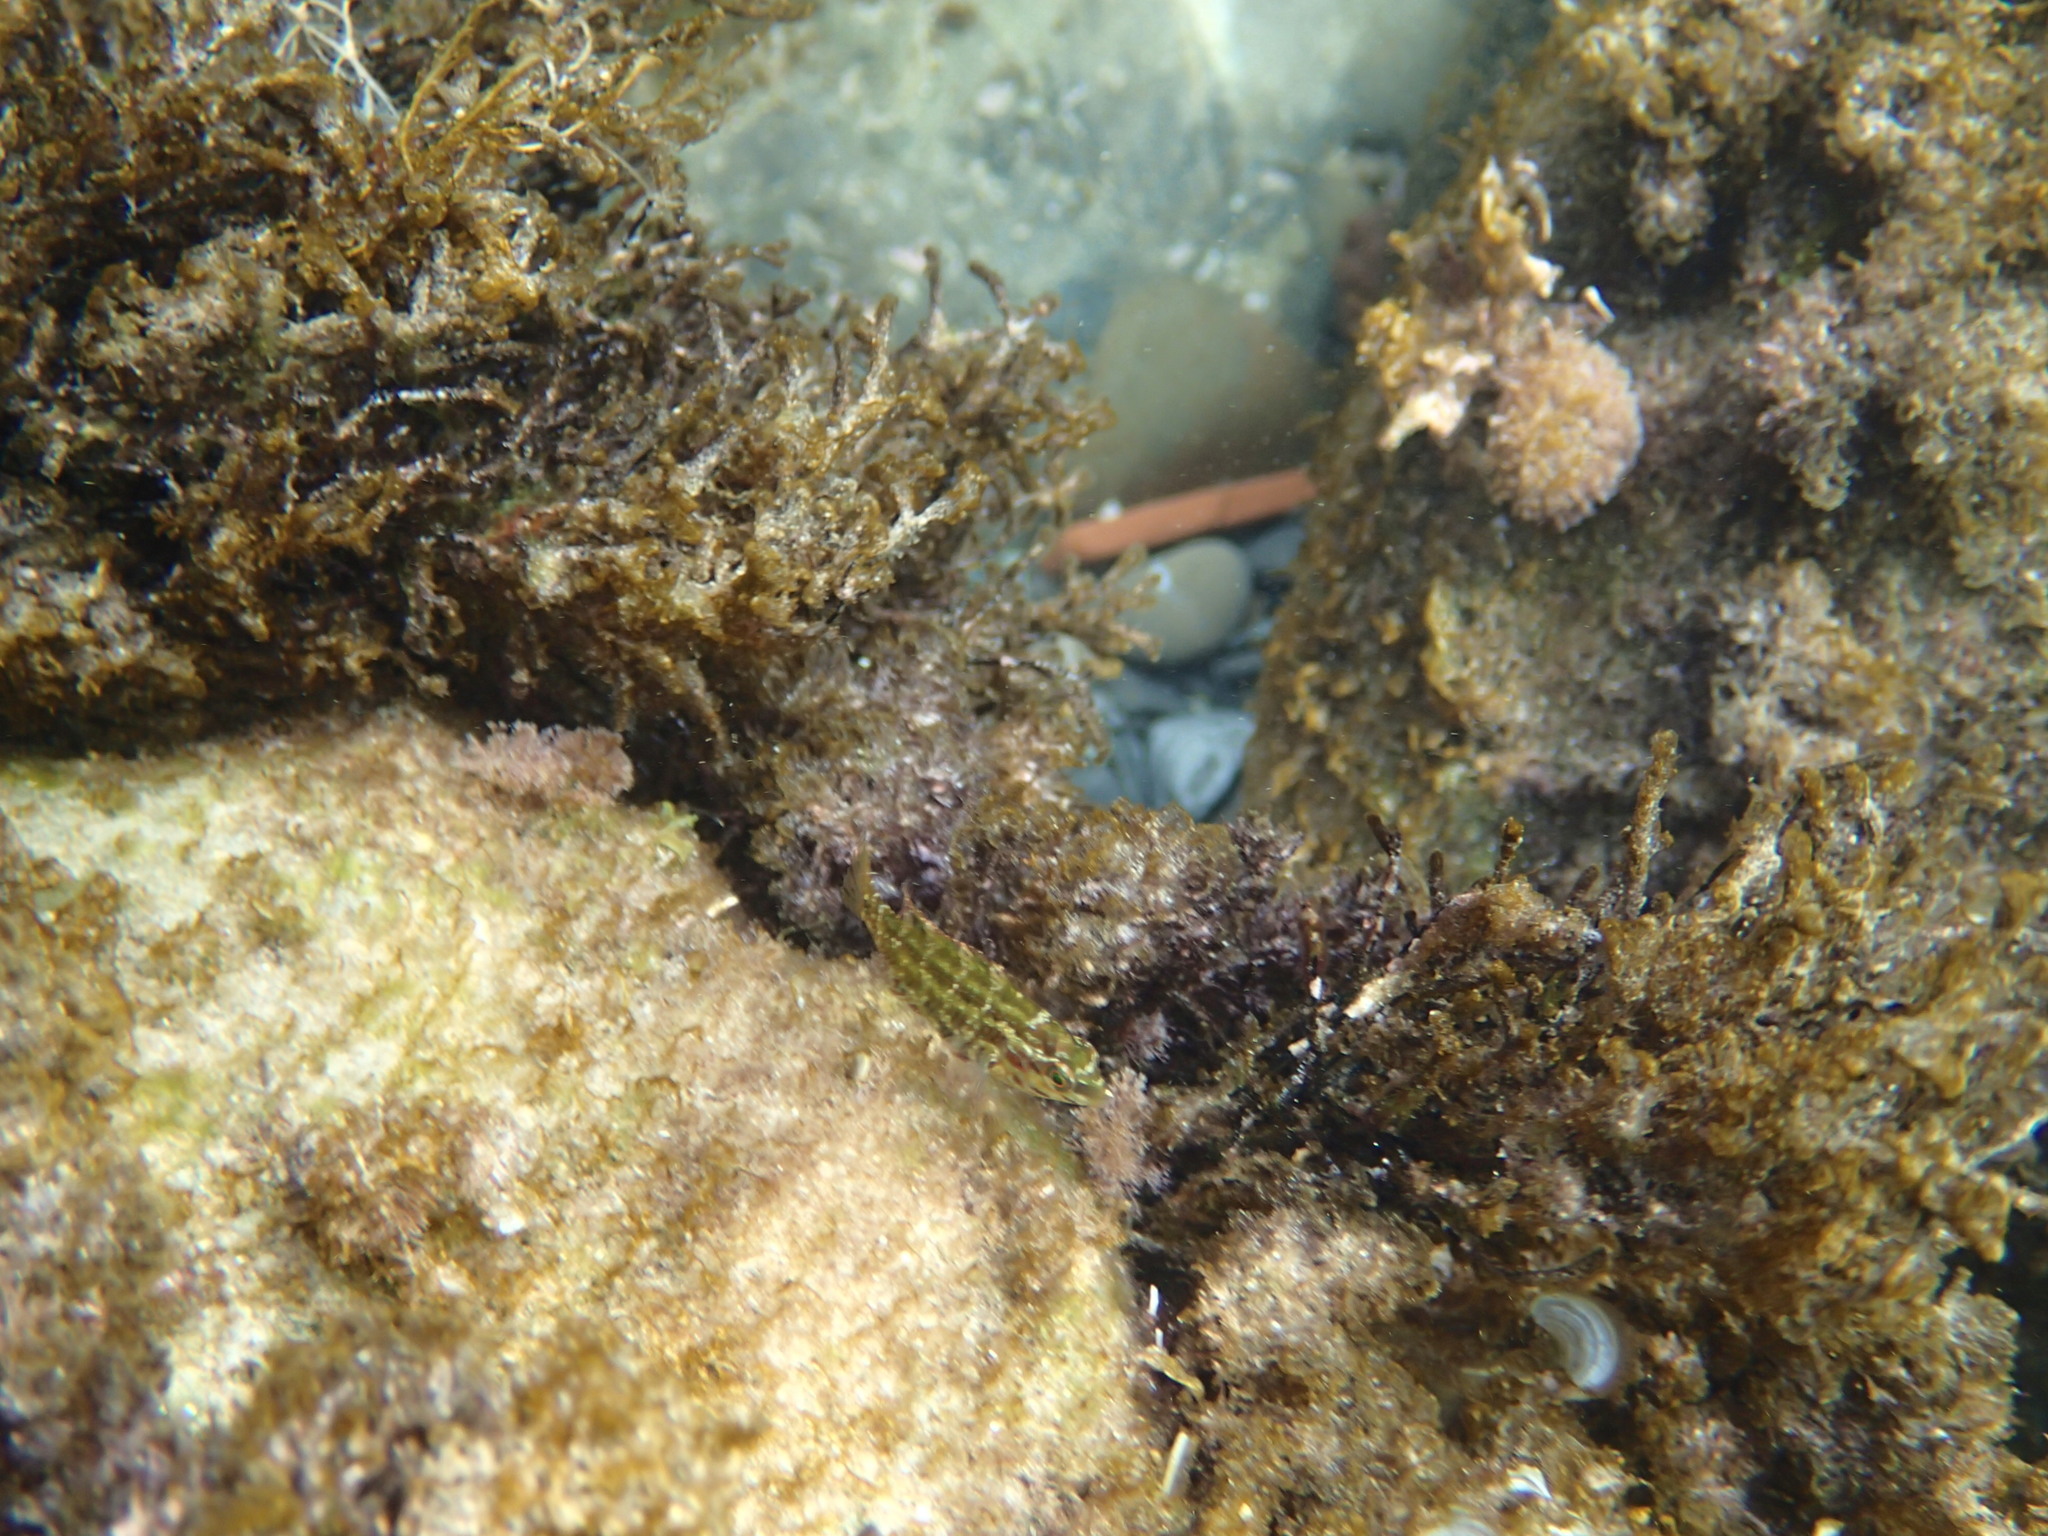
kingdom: Animalia
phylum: Chordata
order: Perciformes
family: Labridae
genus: Symphodus
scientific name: Symphodus roissali
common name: Five-spotted wrasse
